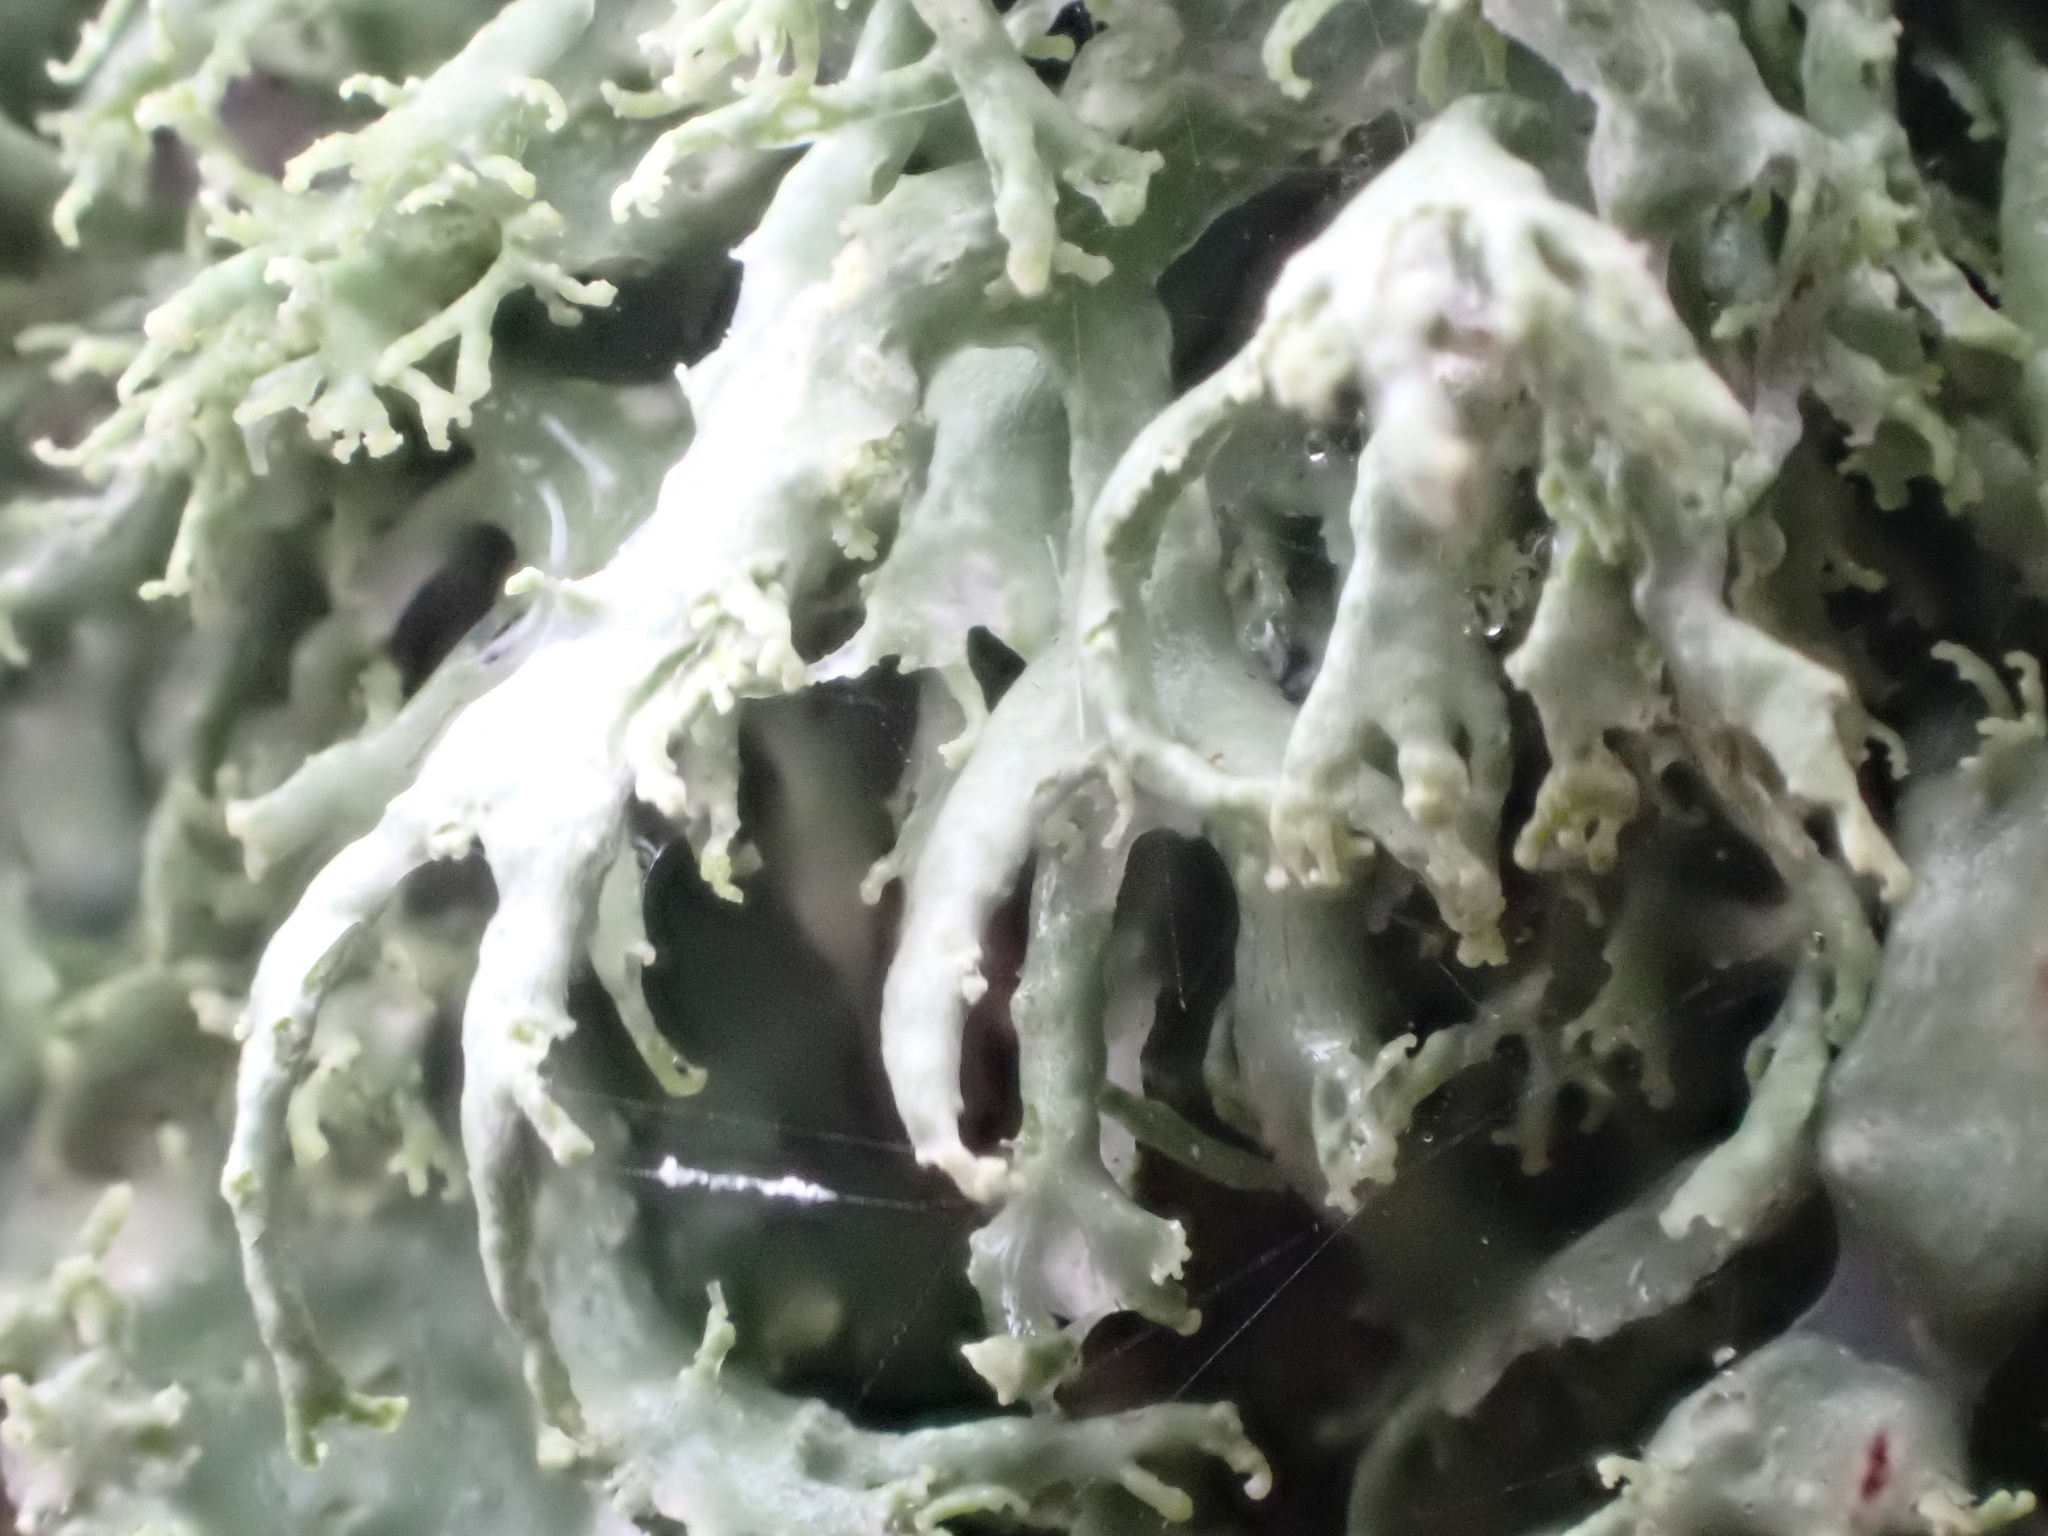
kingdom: Fungi
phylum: Ascomycota
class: Lecanoromycetes
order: Lecanorales
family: Ramalinaceae
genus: Ramalina
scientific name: Ramalina farinacea
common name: Farinose cartilage lichen
